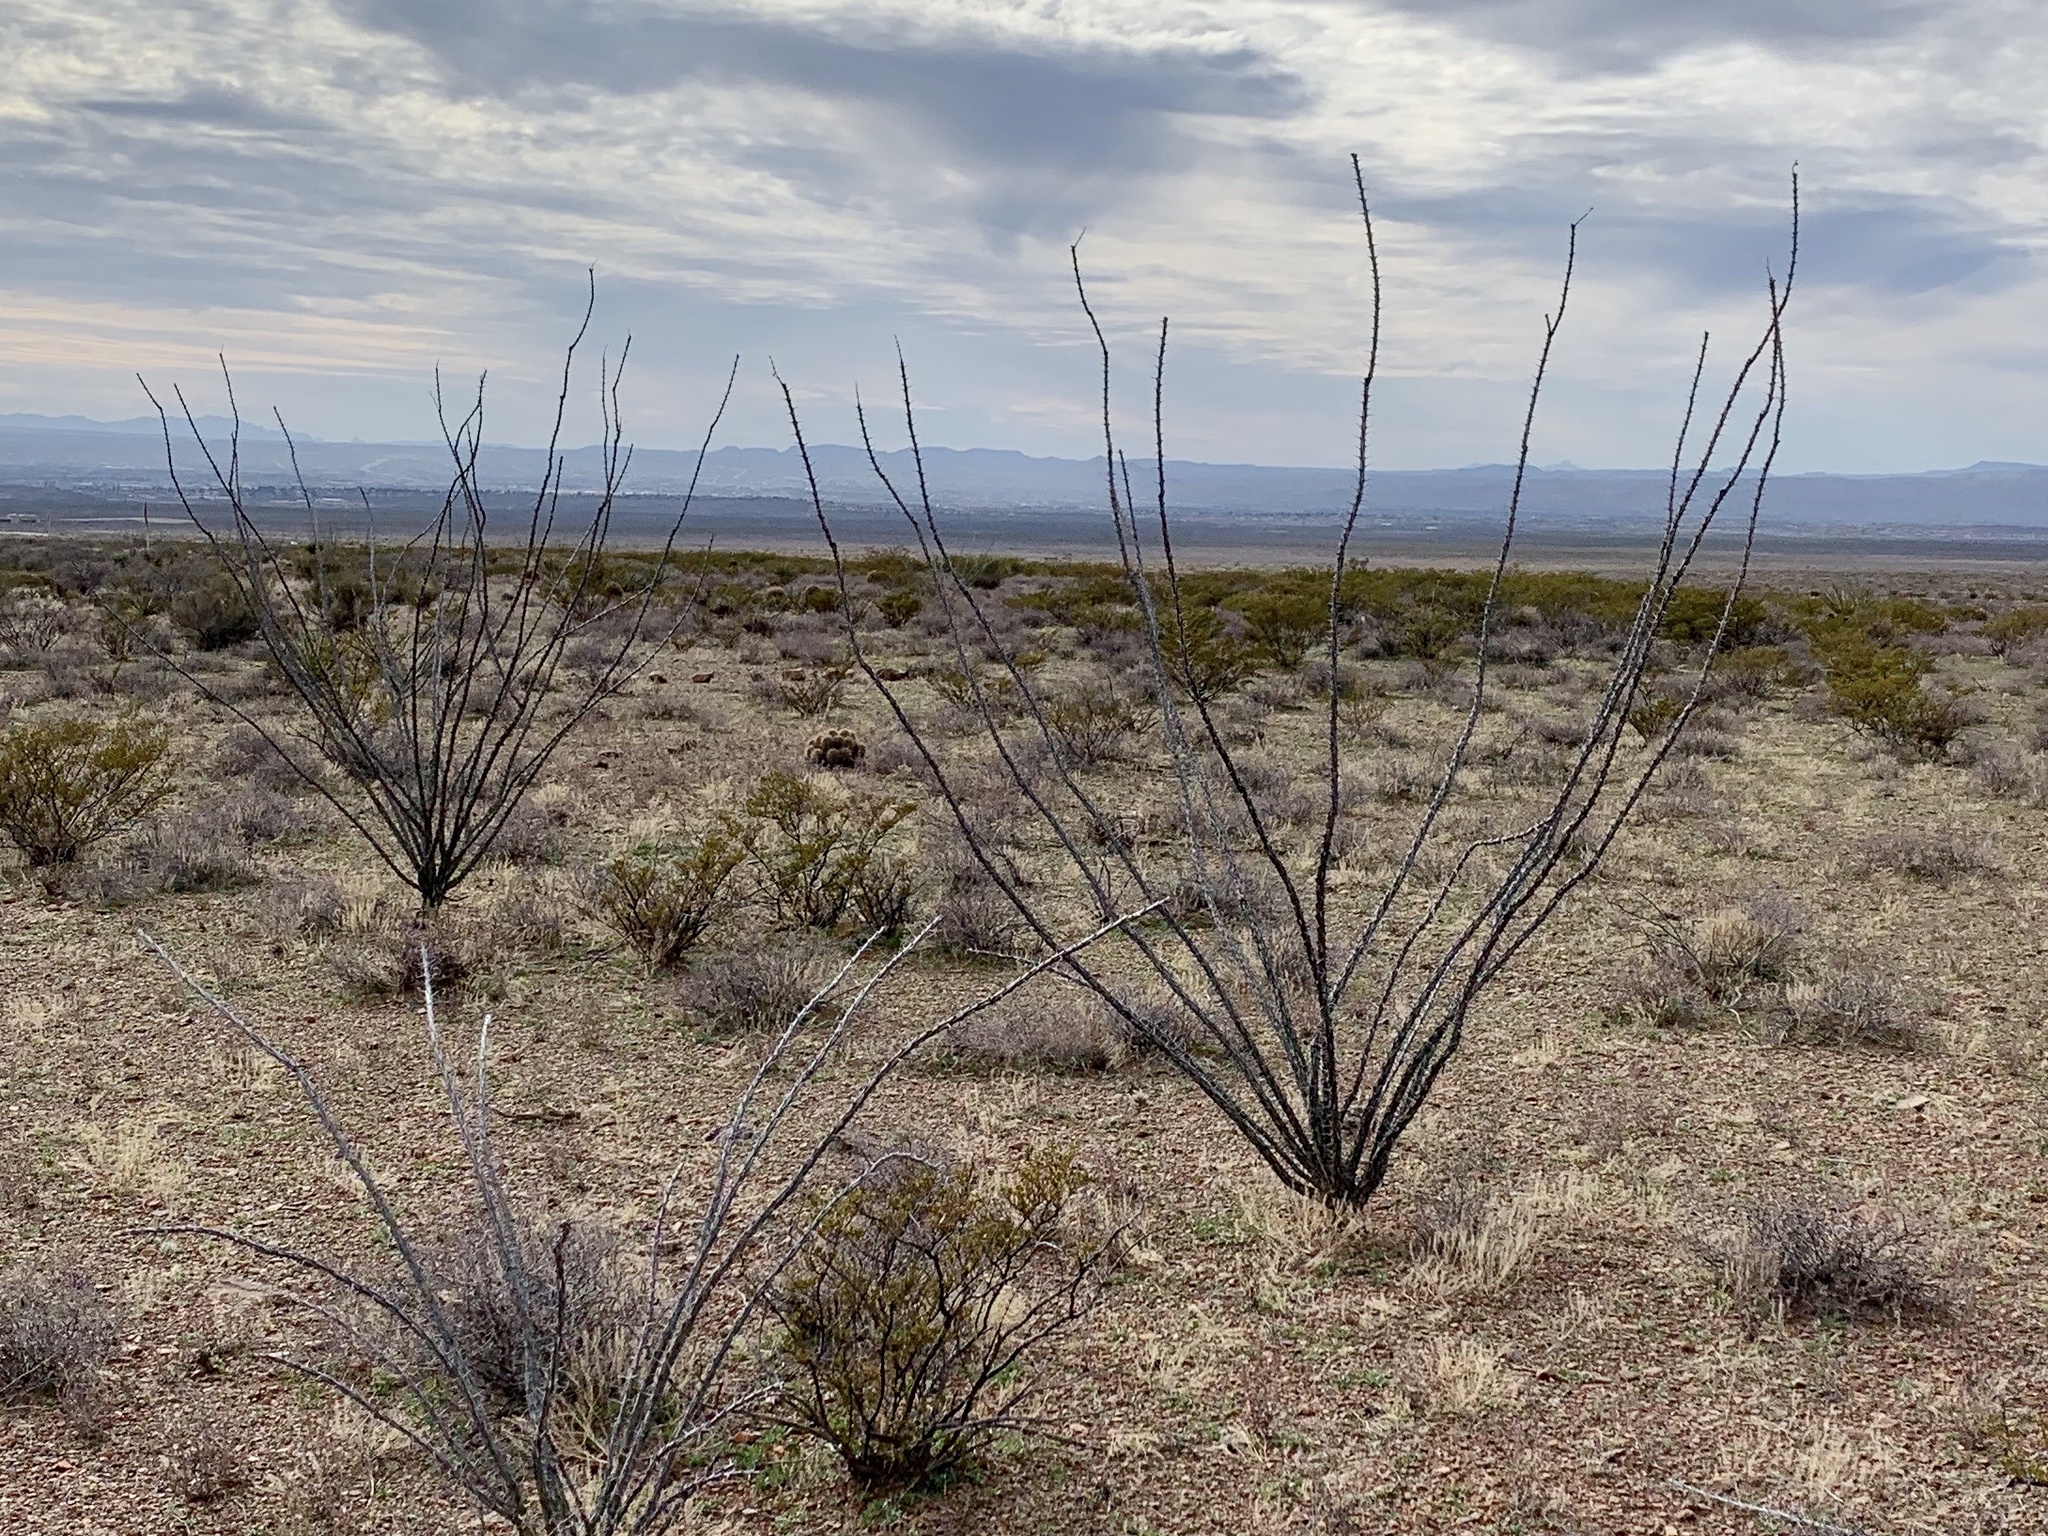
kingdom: Plantae
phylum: Tracheophyta
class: Magnoliopsida
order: Ericales
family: Fouquieriaceae
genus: Fouquieria
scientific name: Fouquieria splendens
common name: Vine-cactus
